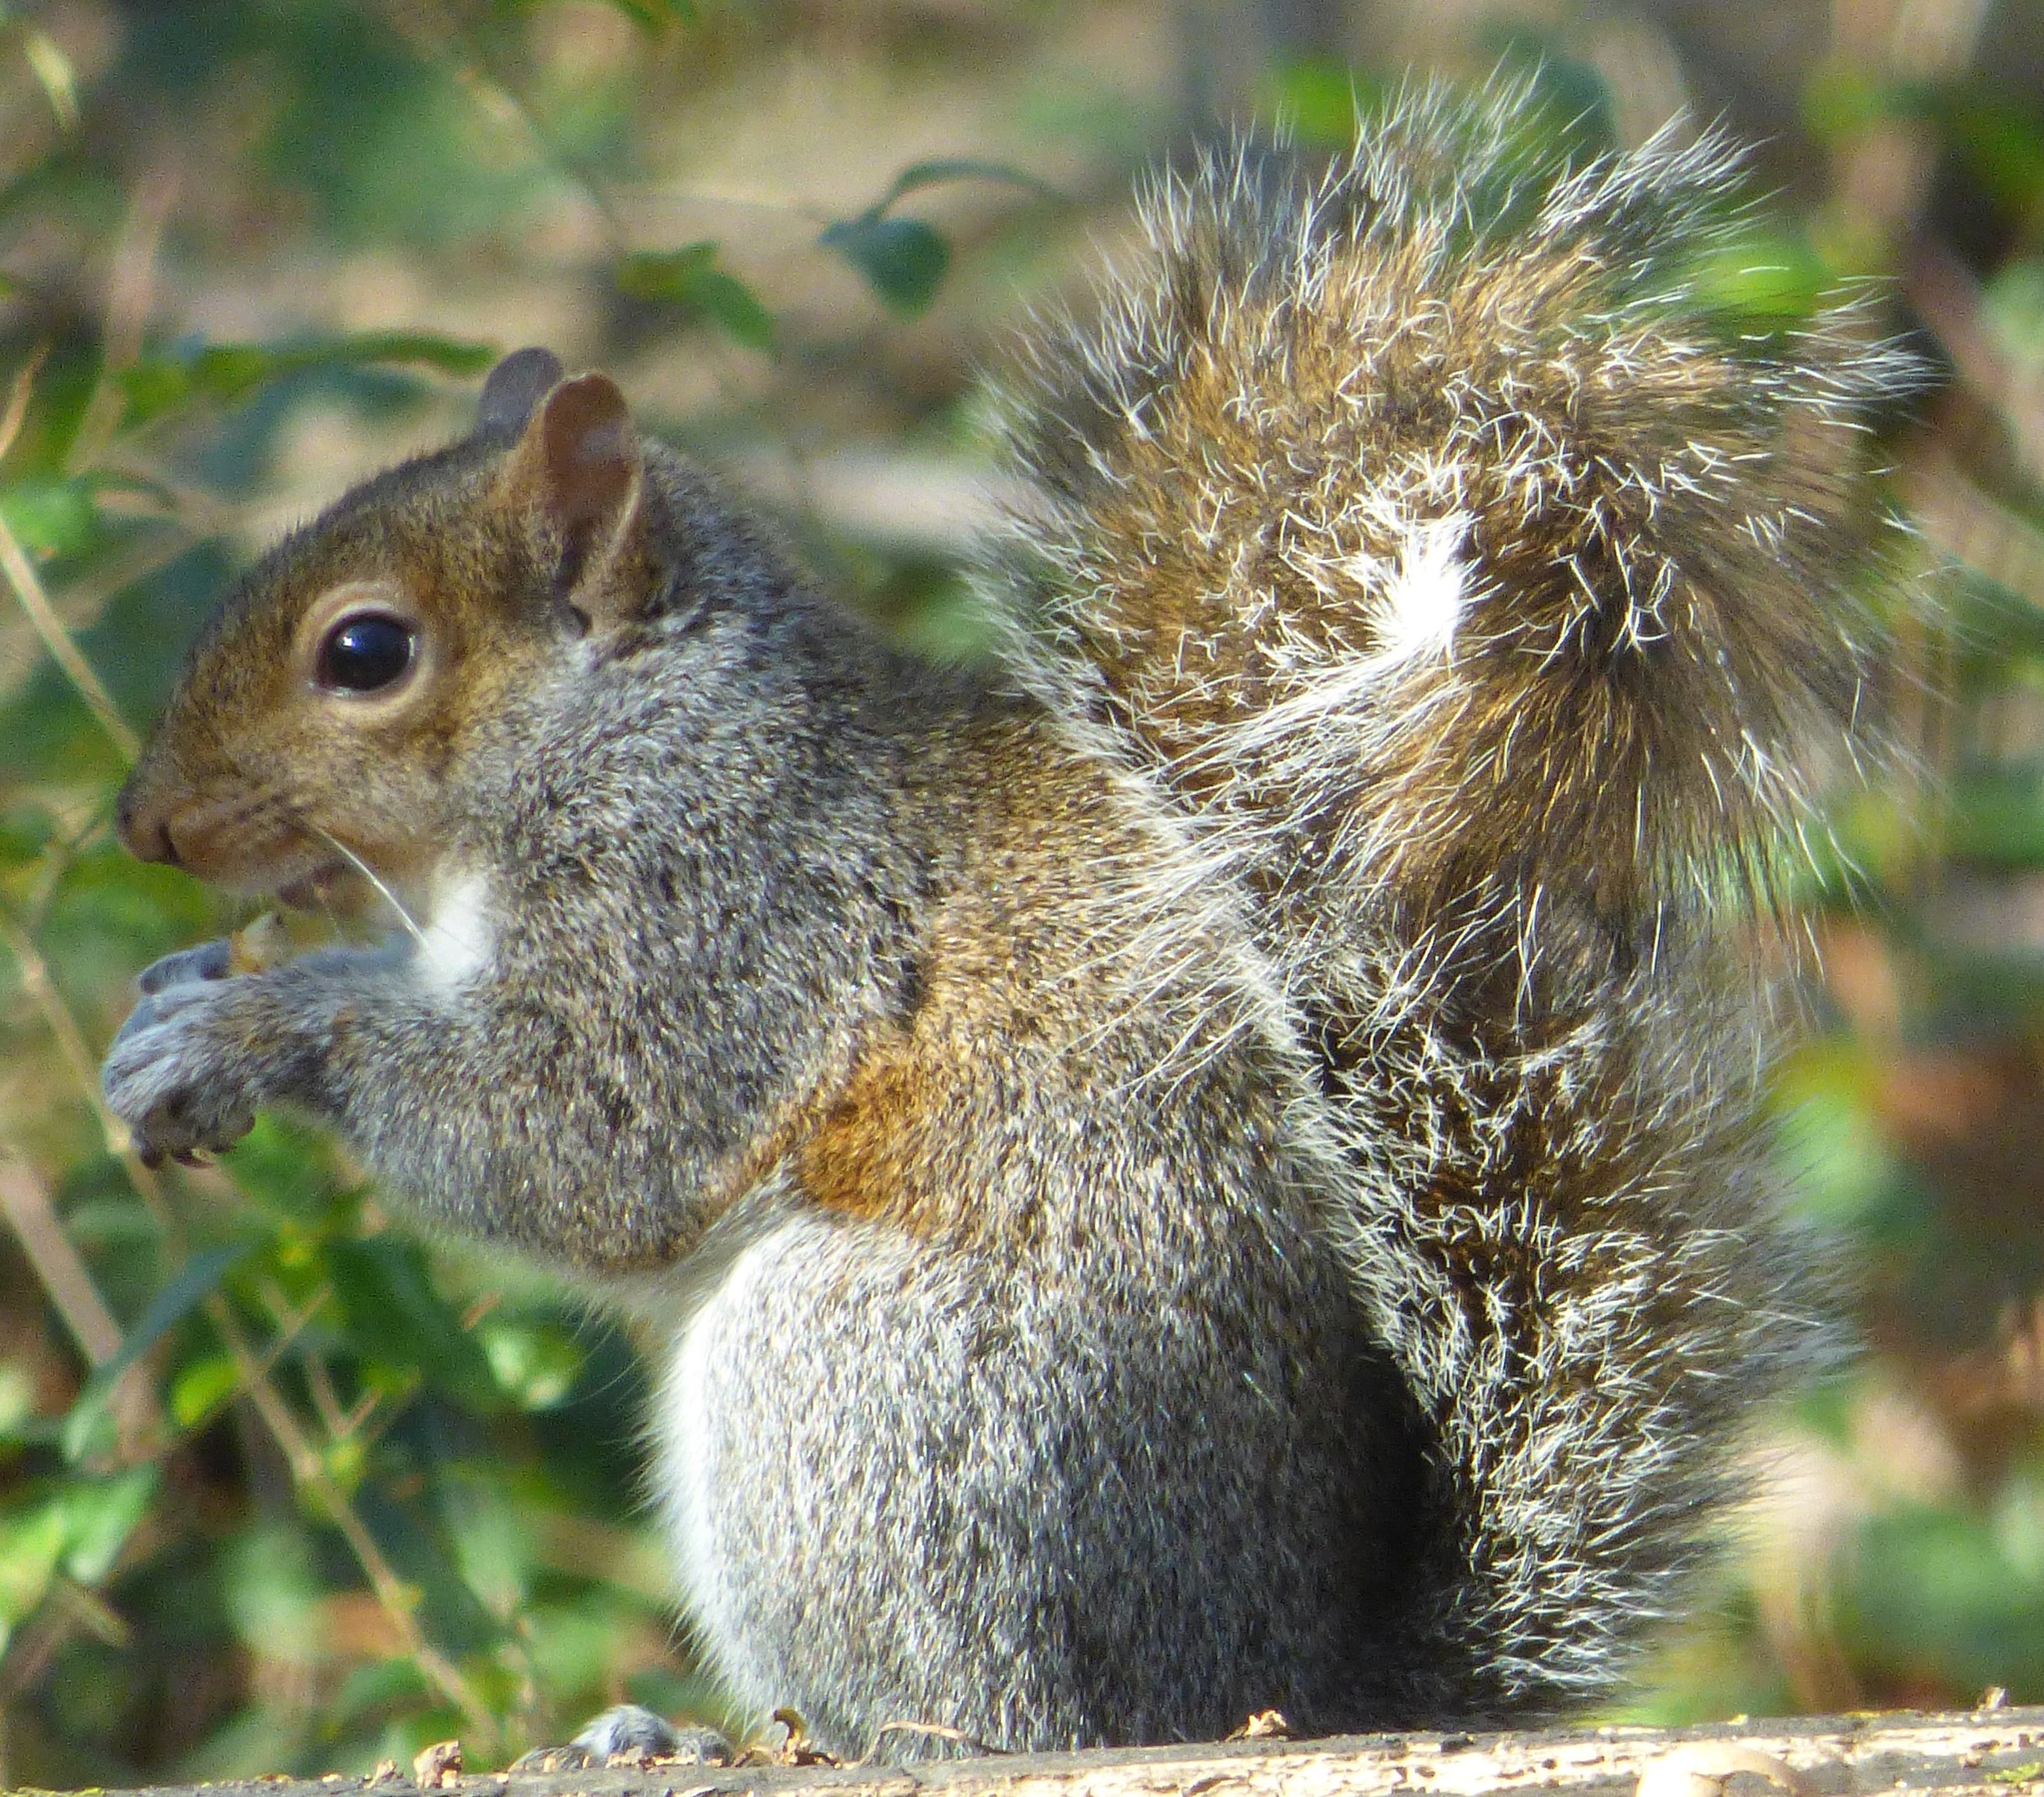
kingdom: Animalia
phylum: Chordata
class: Mammalia
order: Rodentia
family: Sciuridae
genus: Sciurus
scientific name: Sciurus carolinensis
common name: Eastern gray squirrel
